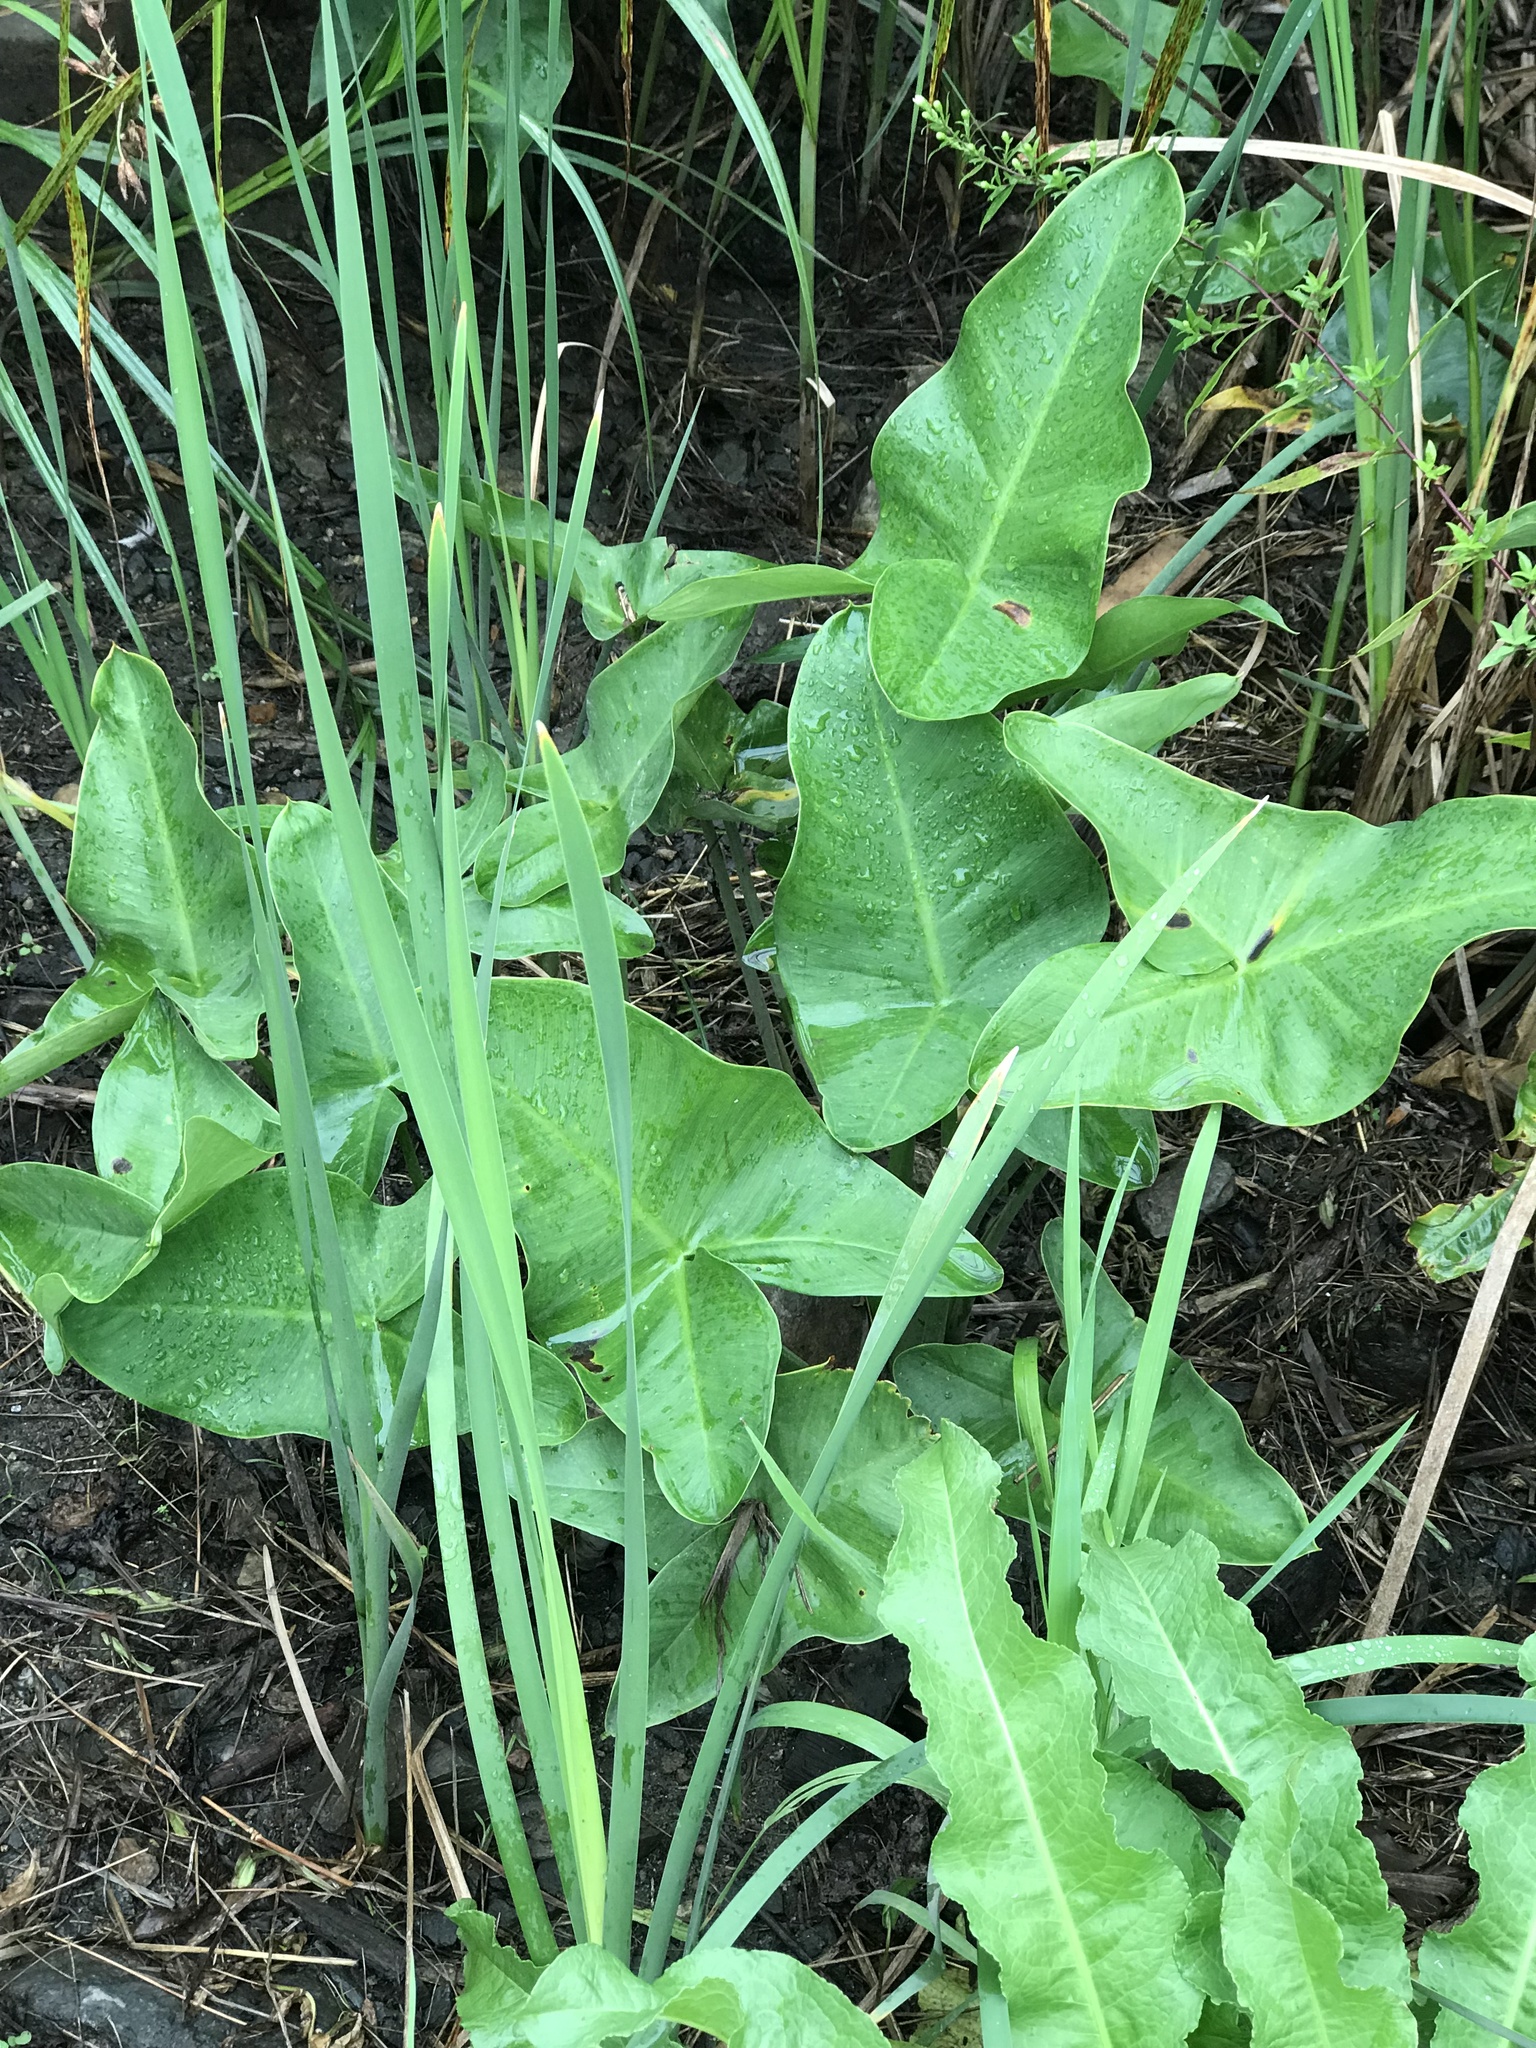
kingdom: Plantae
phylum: Tracheophyta
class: Liliopsida
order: Alismatales
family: Araceae
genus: Peltandra
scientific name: Peltandra virginica
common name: Arrow arum
